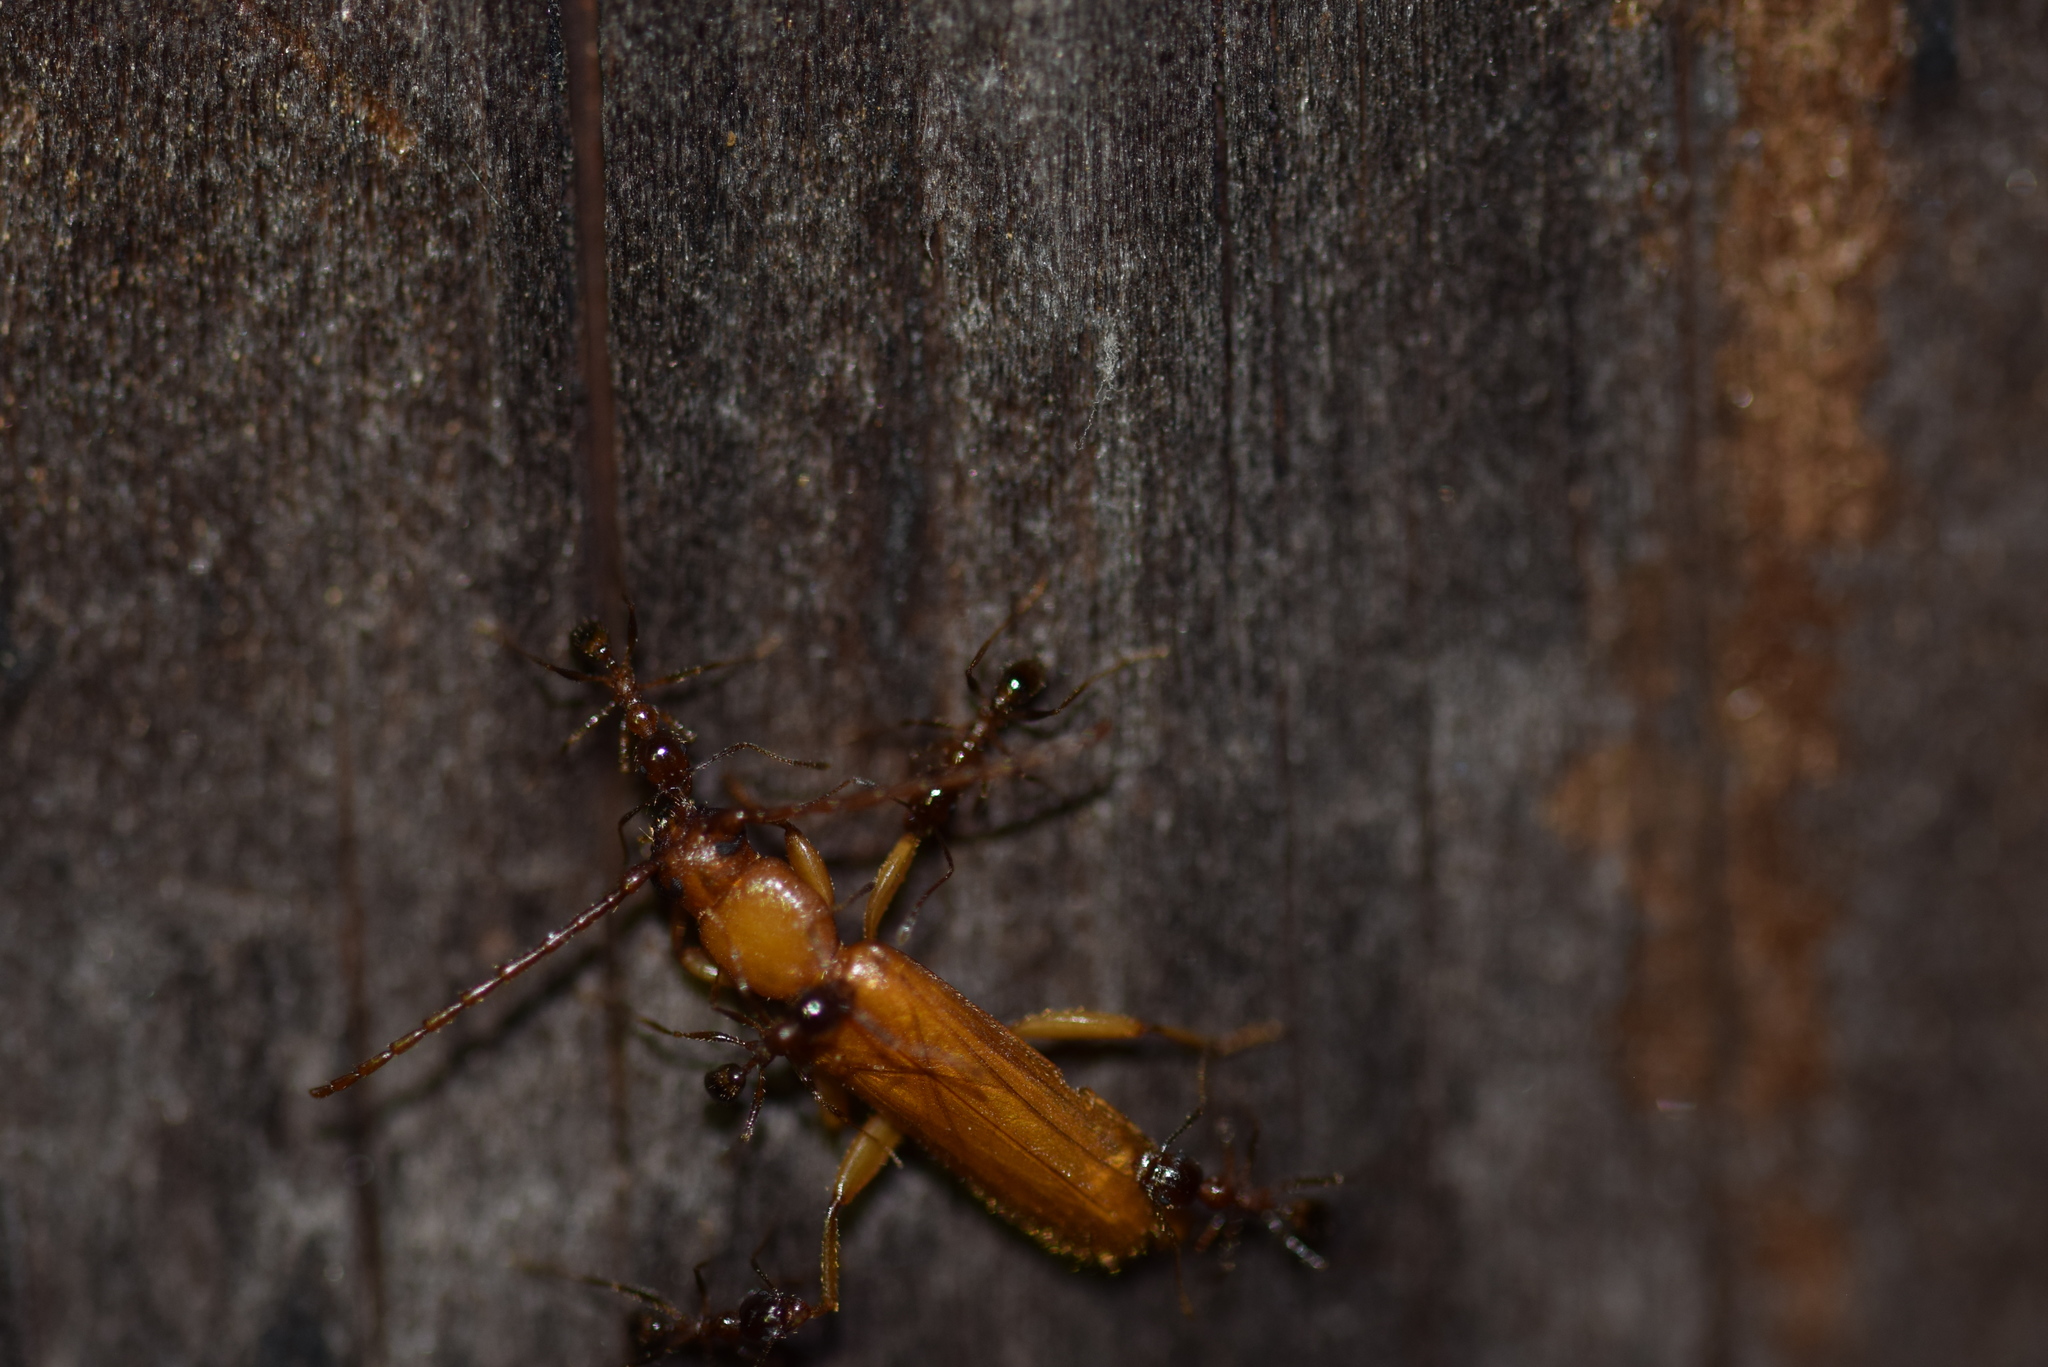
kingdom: Animalia
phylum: Arthropoda
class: Insecta
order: Coleoptera
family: Cerambycidae
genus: Smodicum
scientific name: Smodicum cucujiforme
